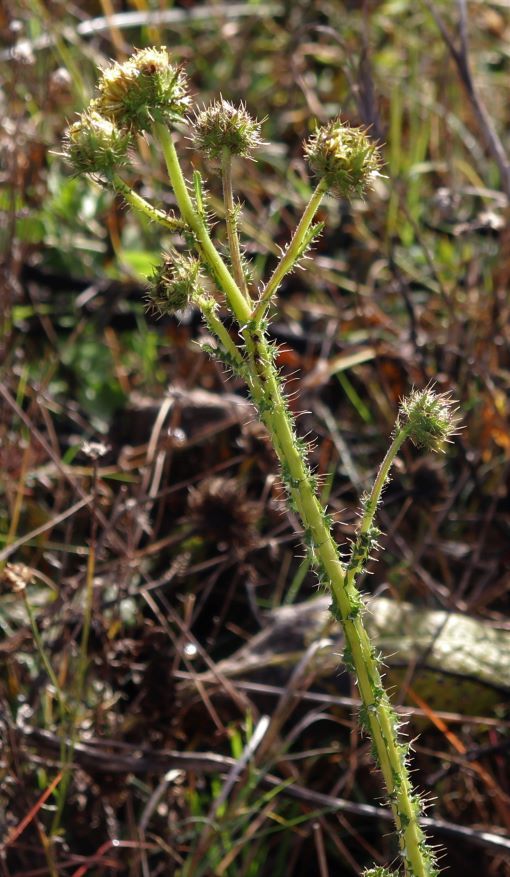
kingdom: Plantae
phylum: Tracheophyta
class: Magnoliopsida
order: Asterales
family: Asteraceae
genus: Berkheya
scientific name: Berkheya radula
